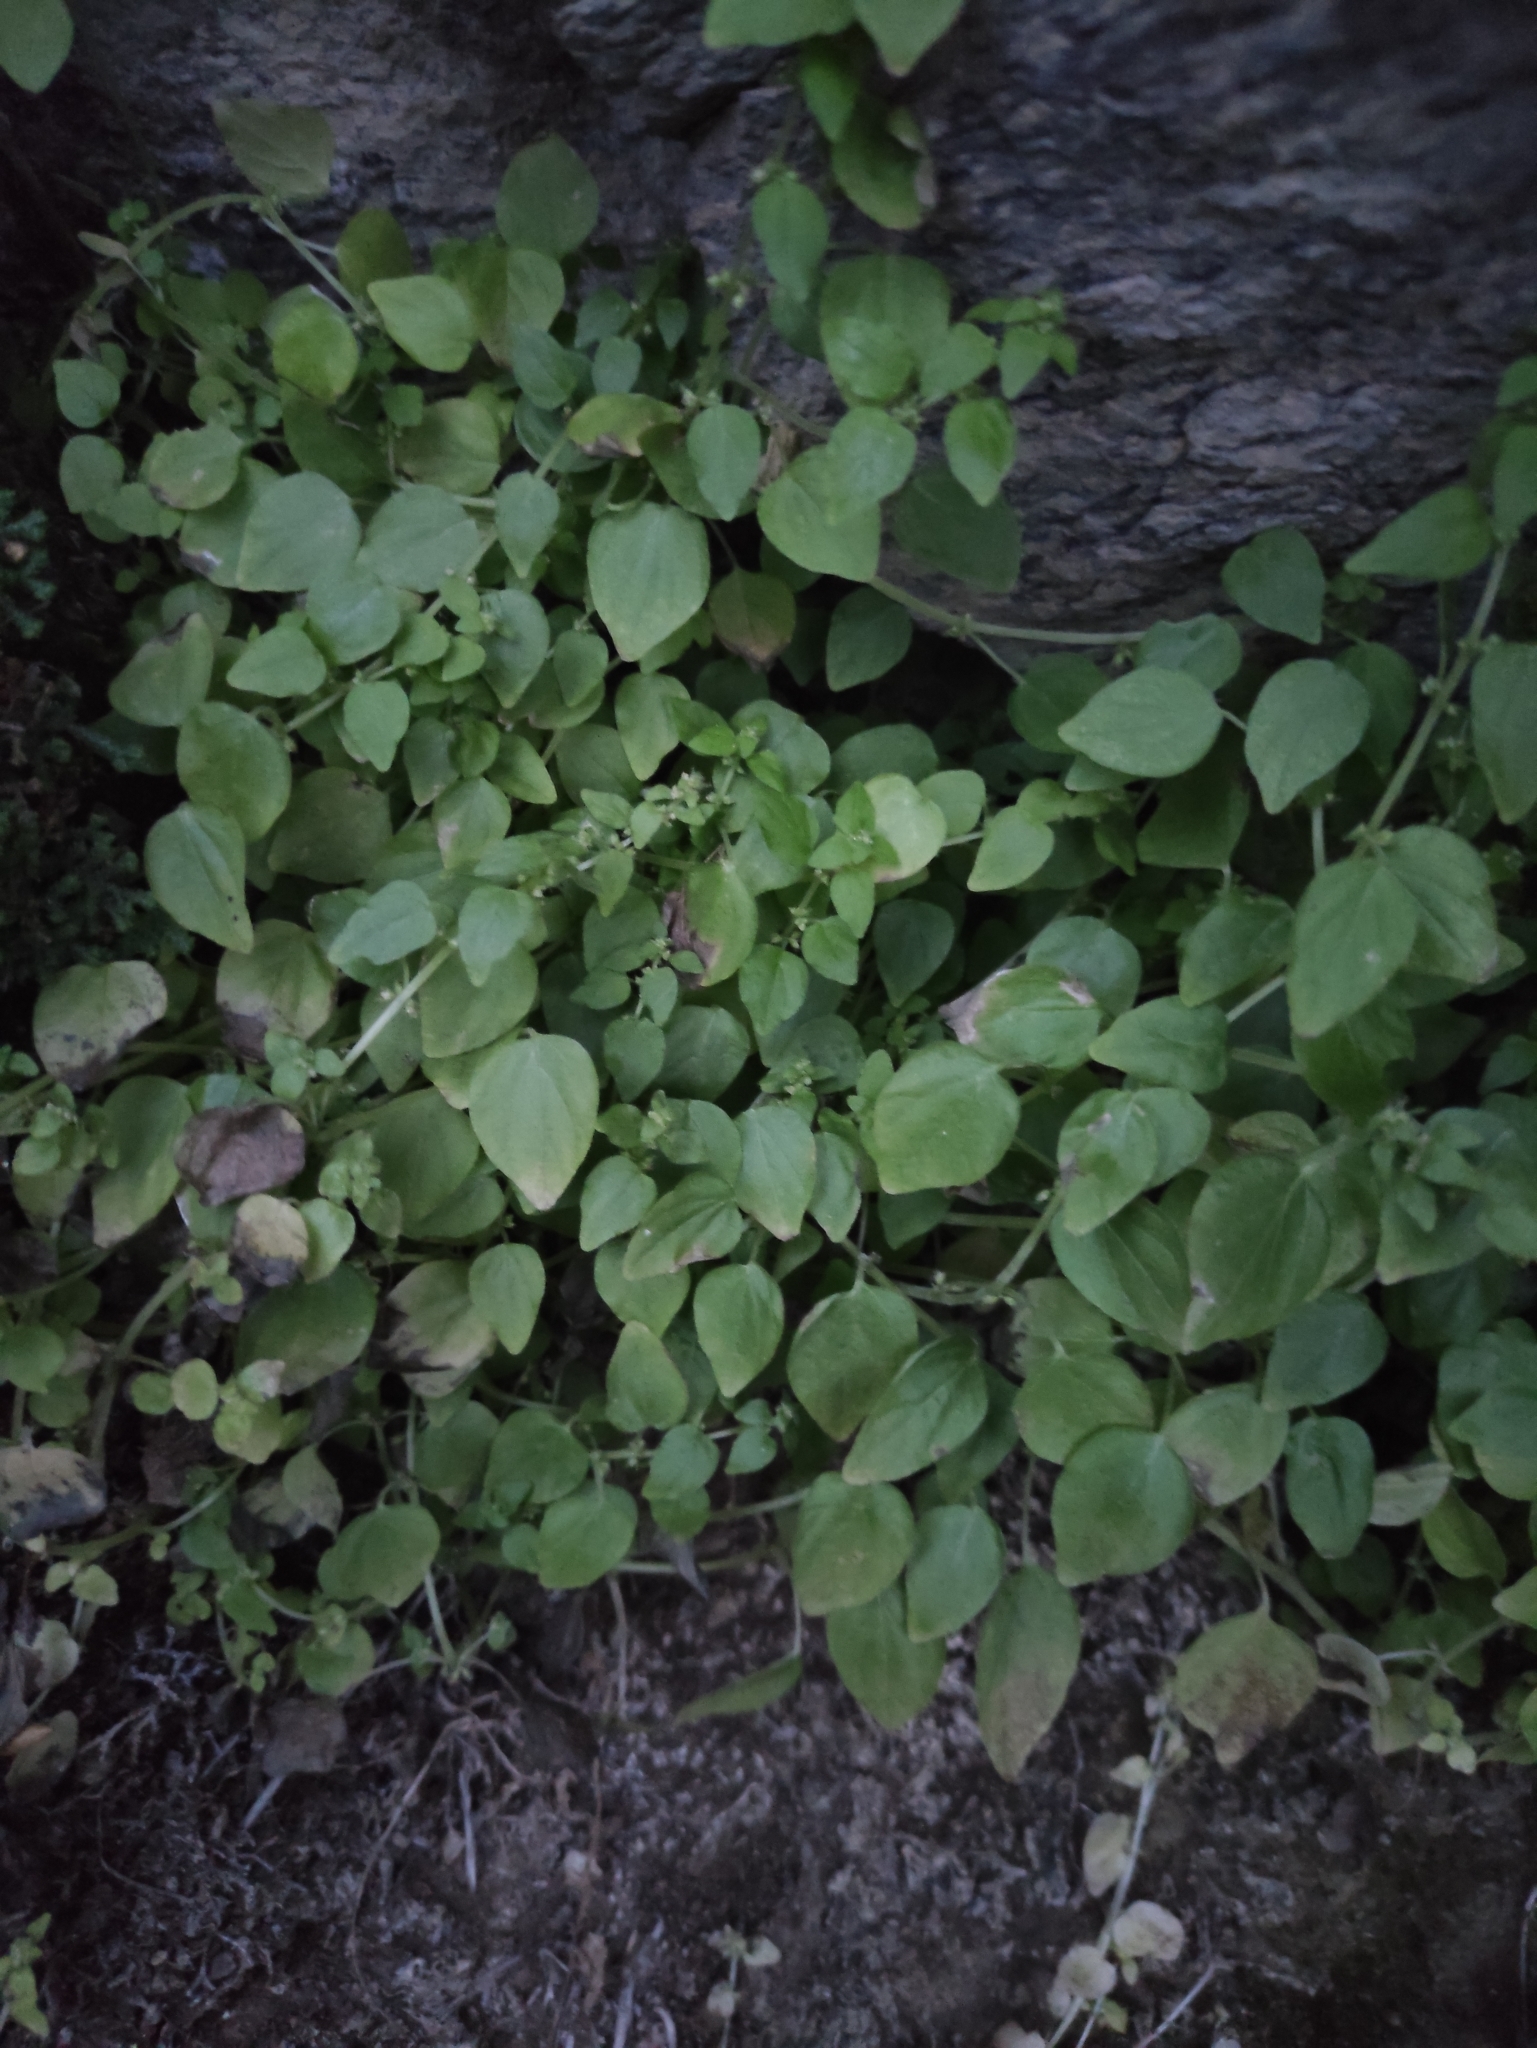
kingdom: Plantae
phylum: Tracheophyta
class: Magnoliopsida
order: Rosales
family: Urticaceae
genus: Parietaria
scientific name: Parietaria micrantha
